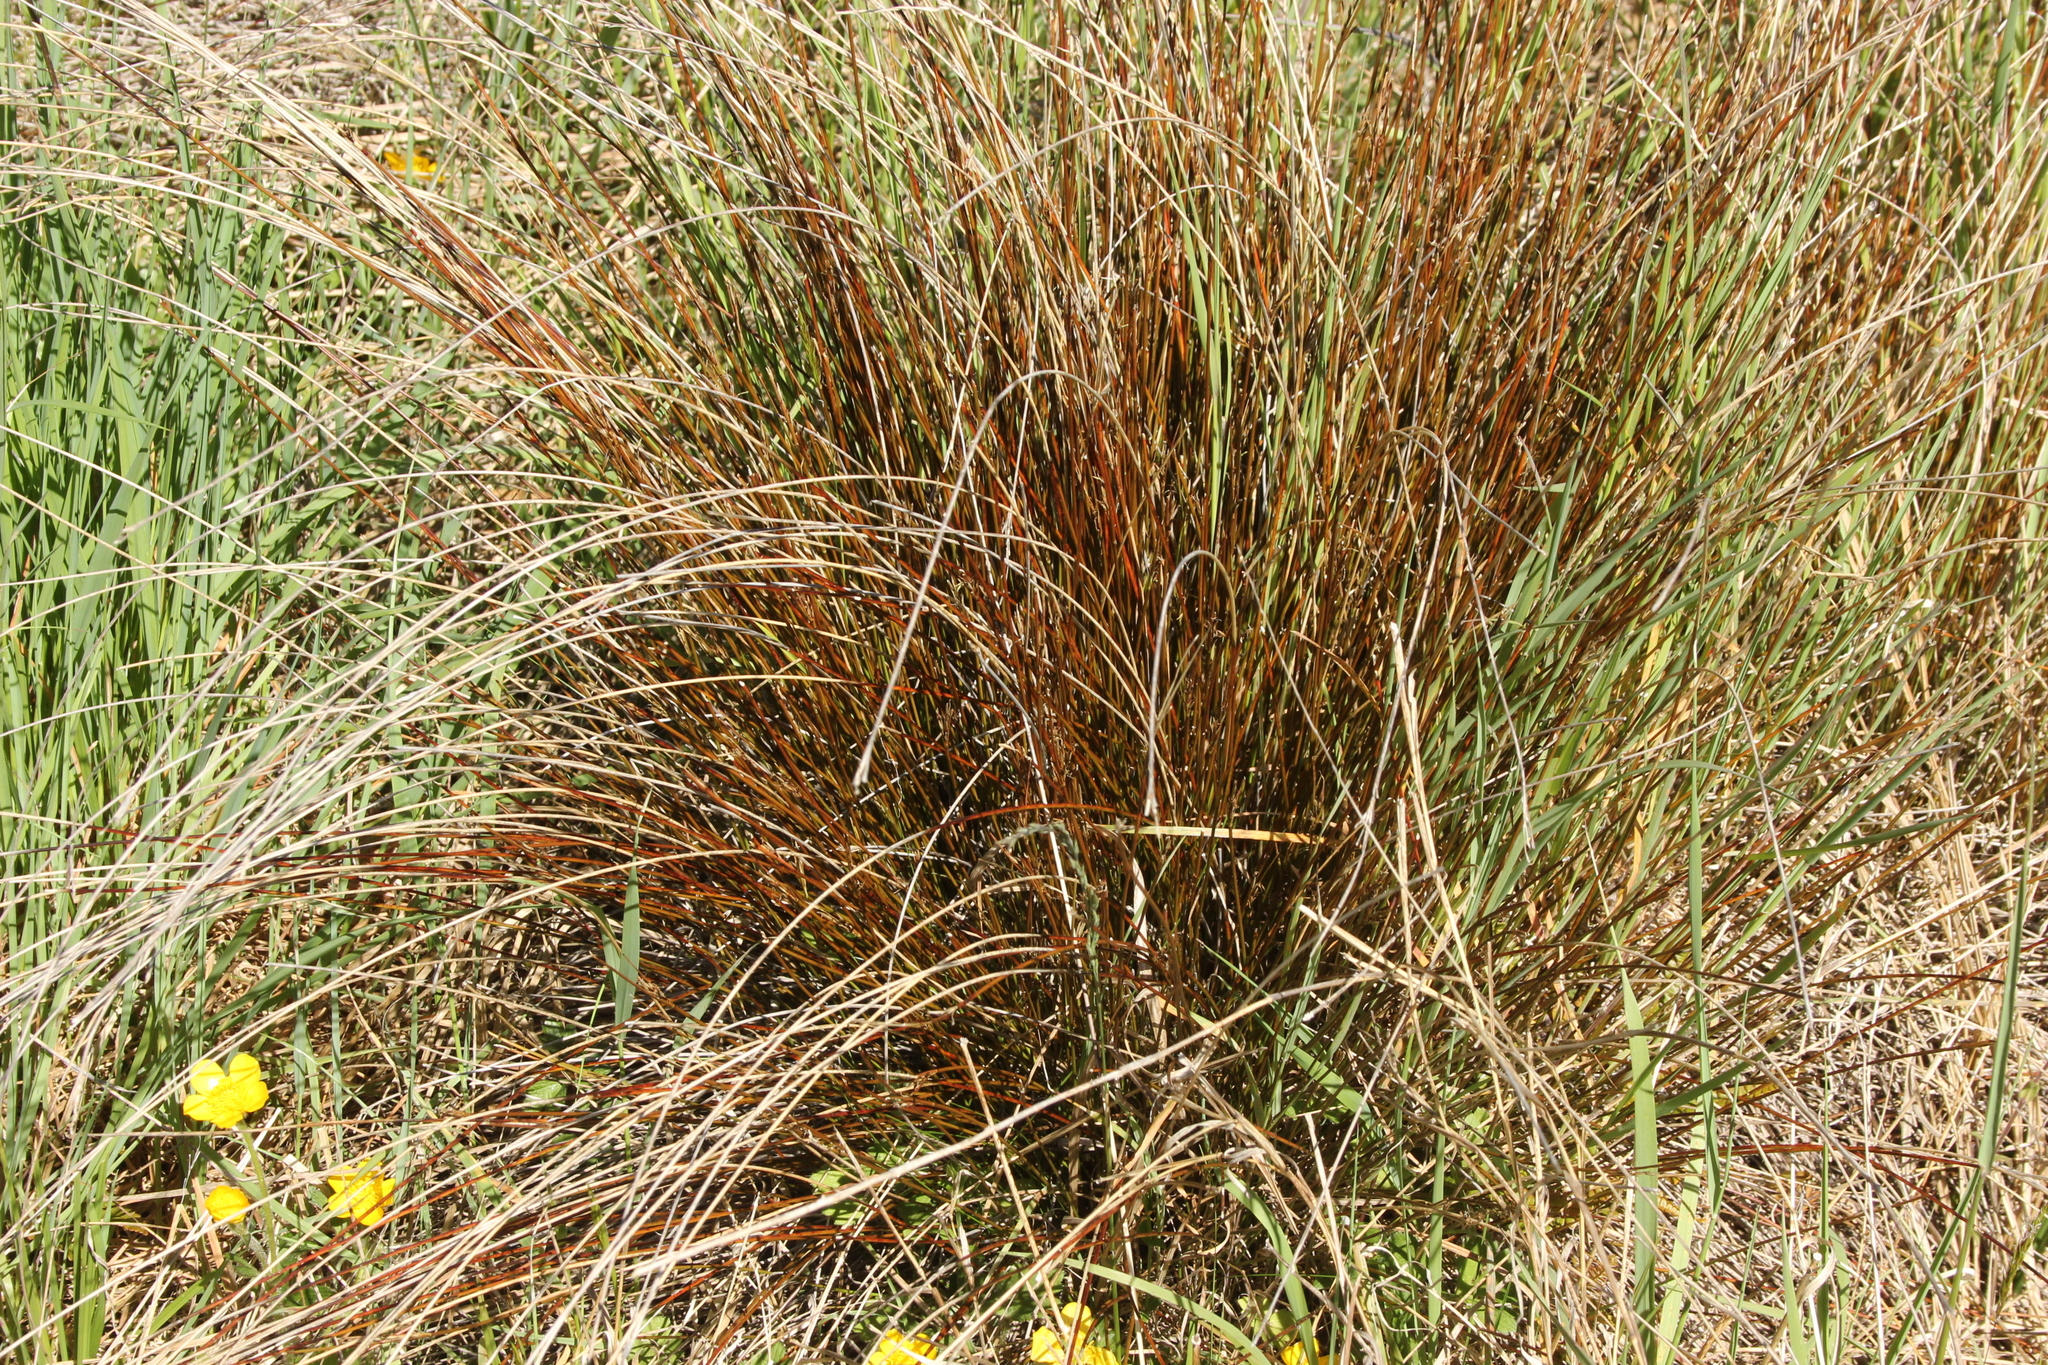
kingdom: Plantae
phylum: Tracheophyta
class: Liliopsida
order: Poales
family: Cyperaceae
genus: Schoenus
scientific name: Schoenus pauciflorus
